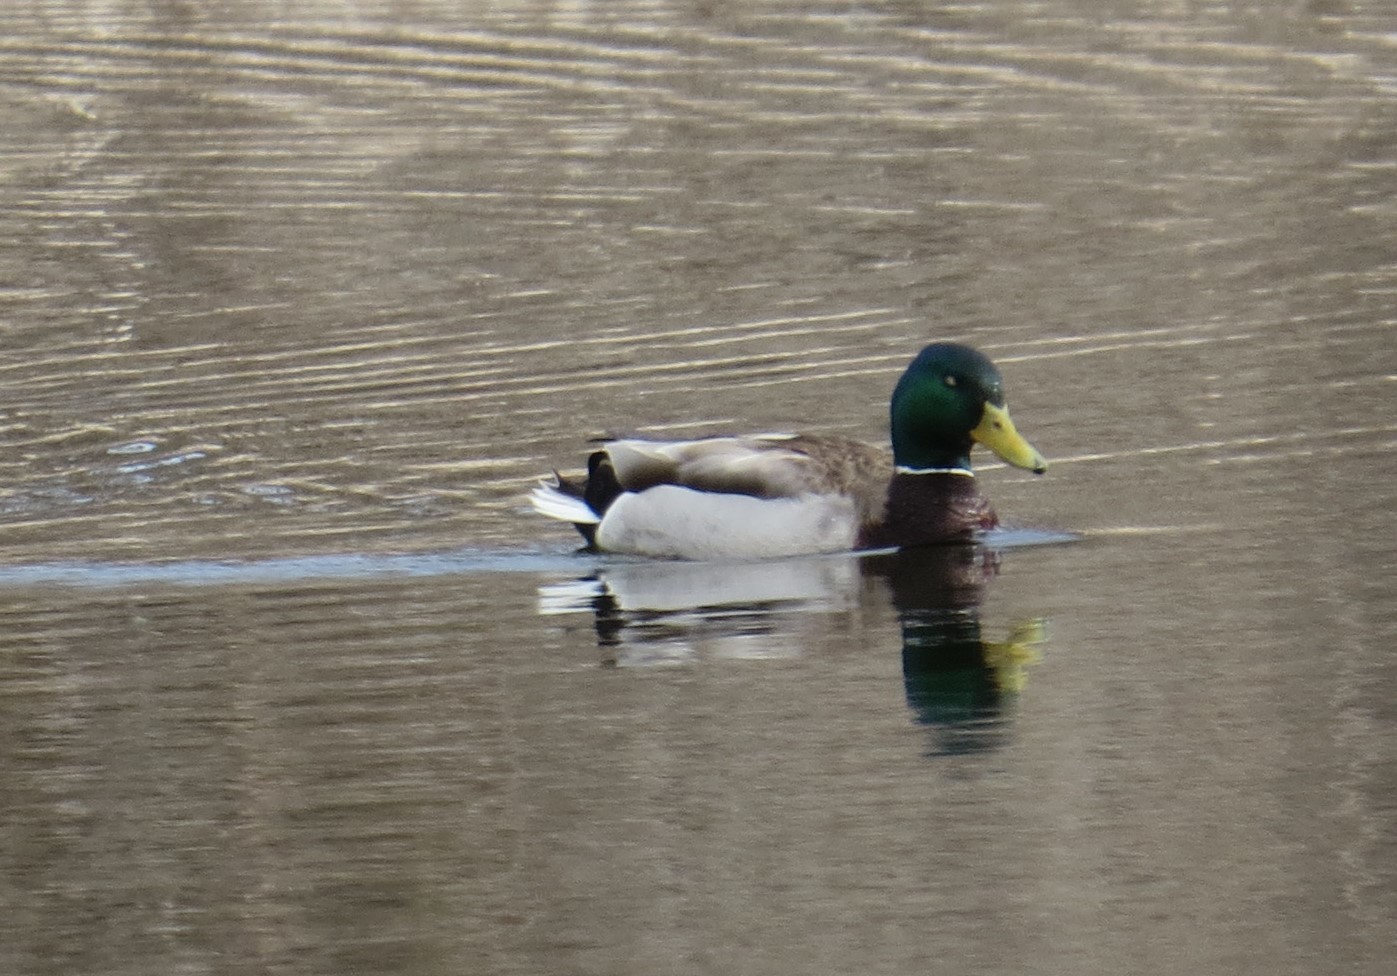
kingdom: Animalia
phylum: Chordata
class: Aves
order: Anseriformes
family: Anatidae
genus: Anas
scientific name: Anas platyrhynchos
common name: Mallard
